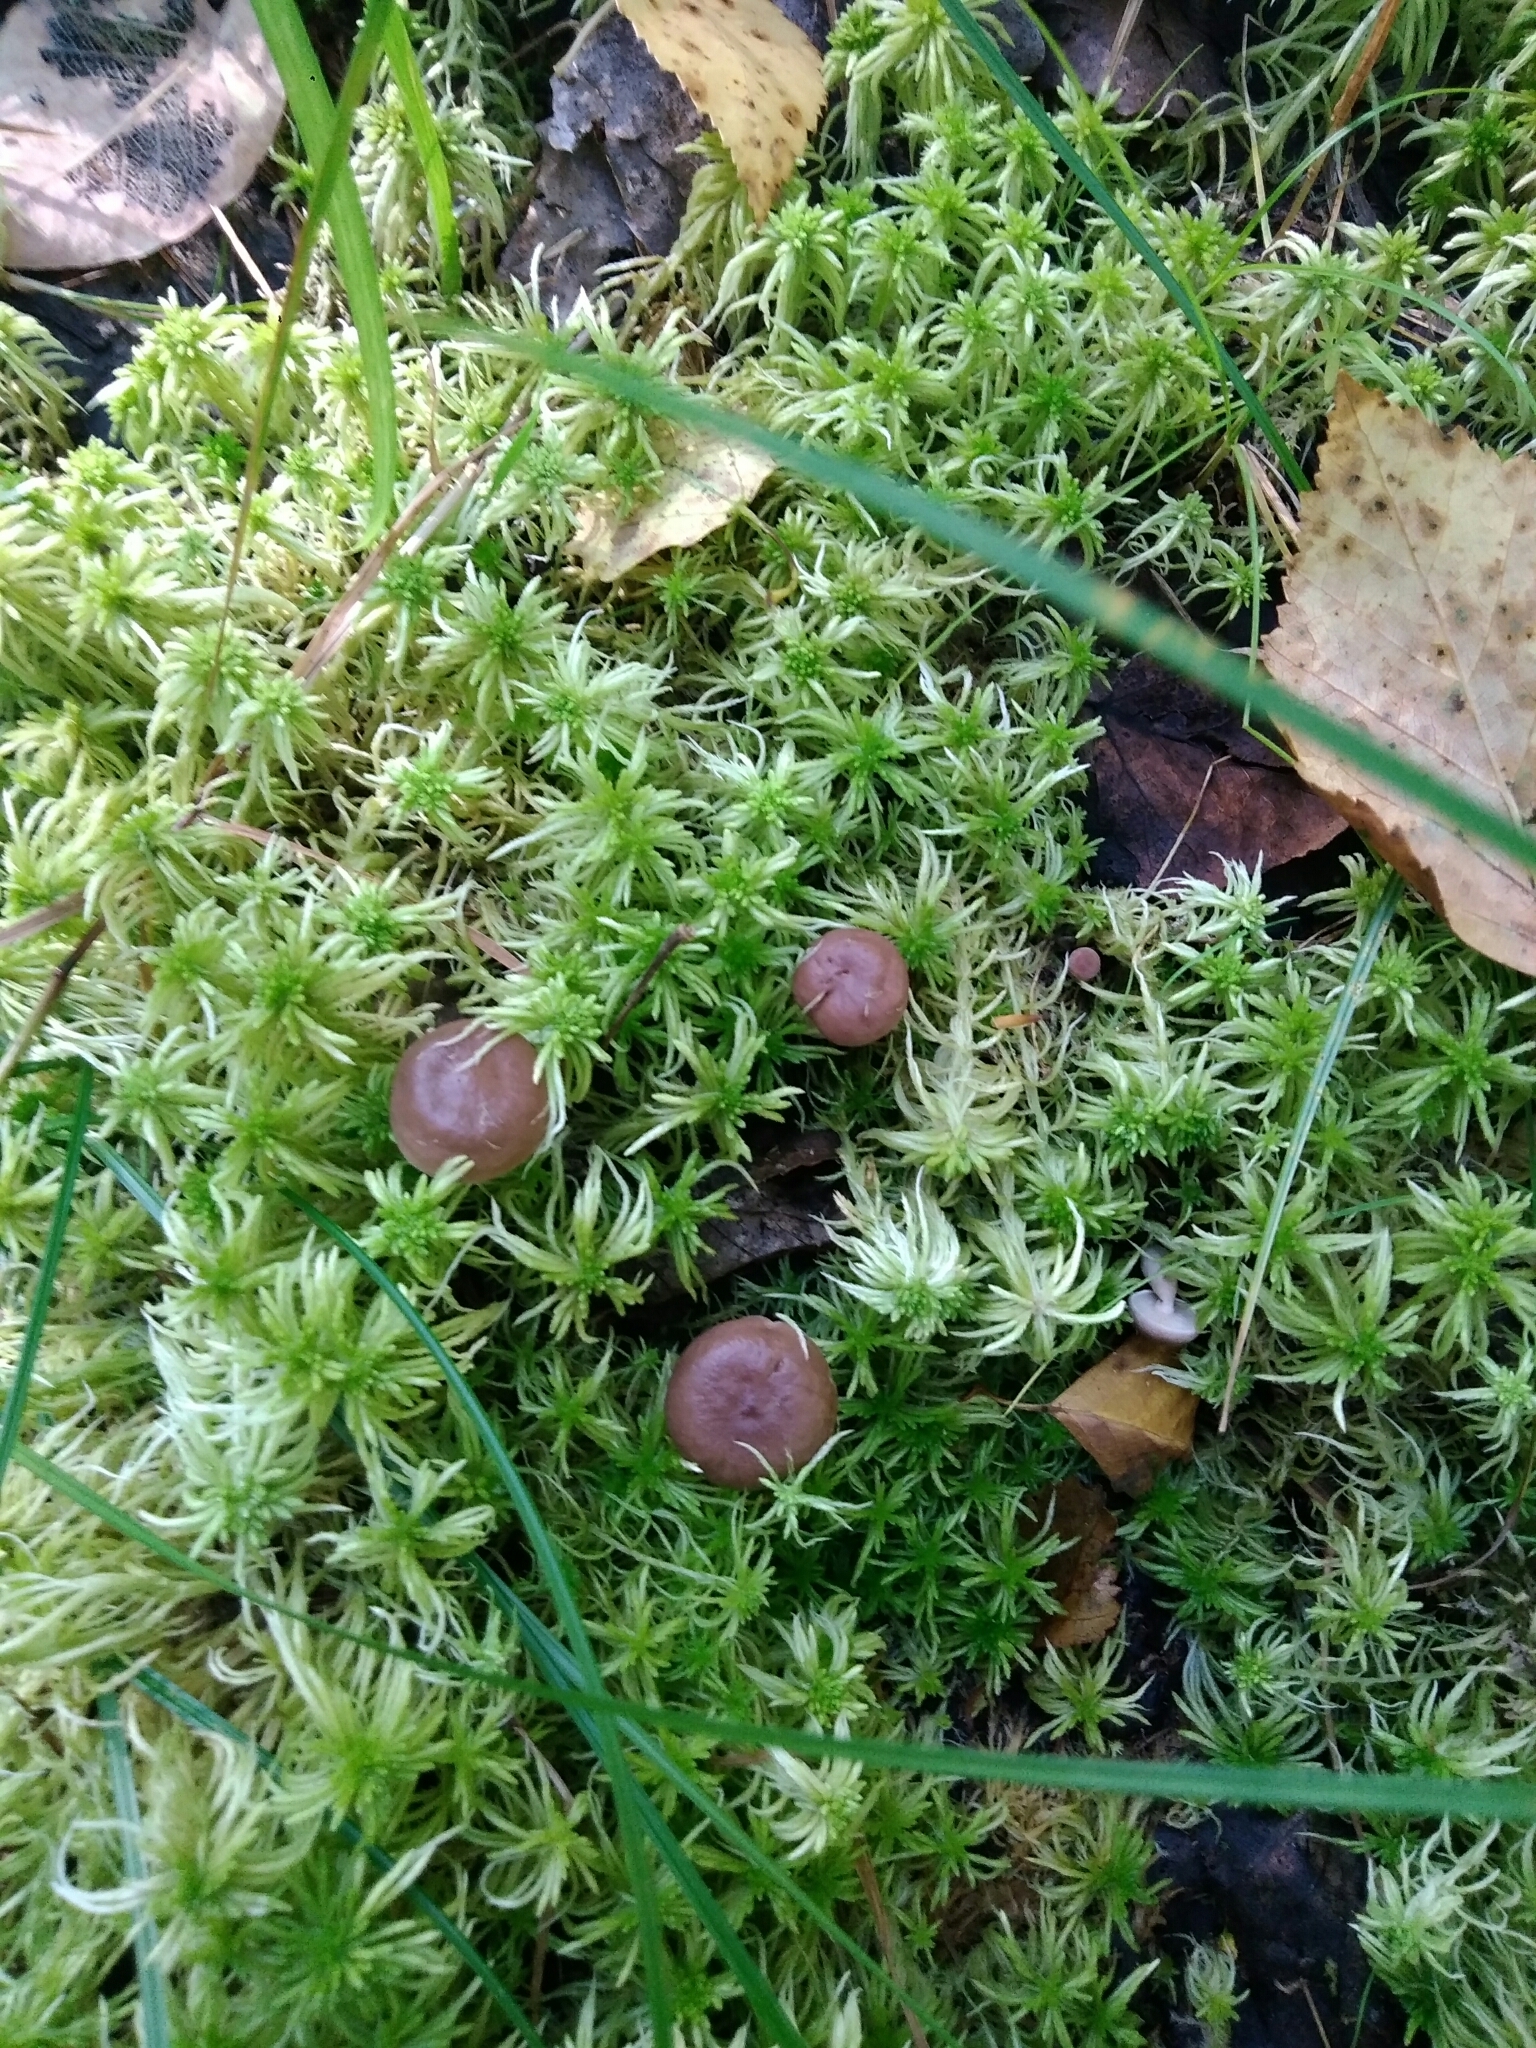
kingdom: Fungi
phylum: Basidiomycota
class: Agaricomycetes
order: Russulales
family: Russulaceae
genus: Lactarius
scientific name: Lactarius trivialis
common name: Tacked milkcap
